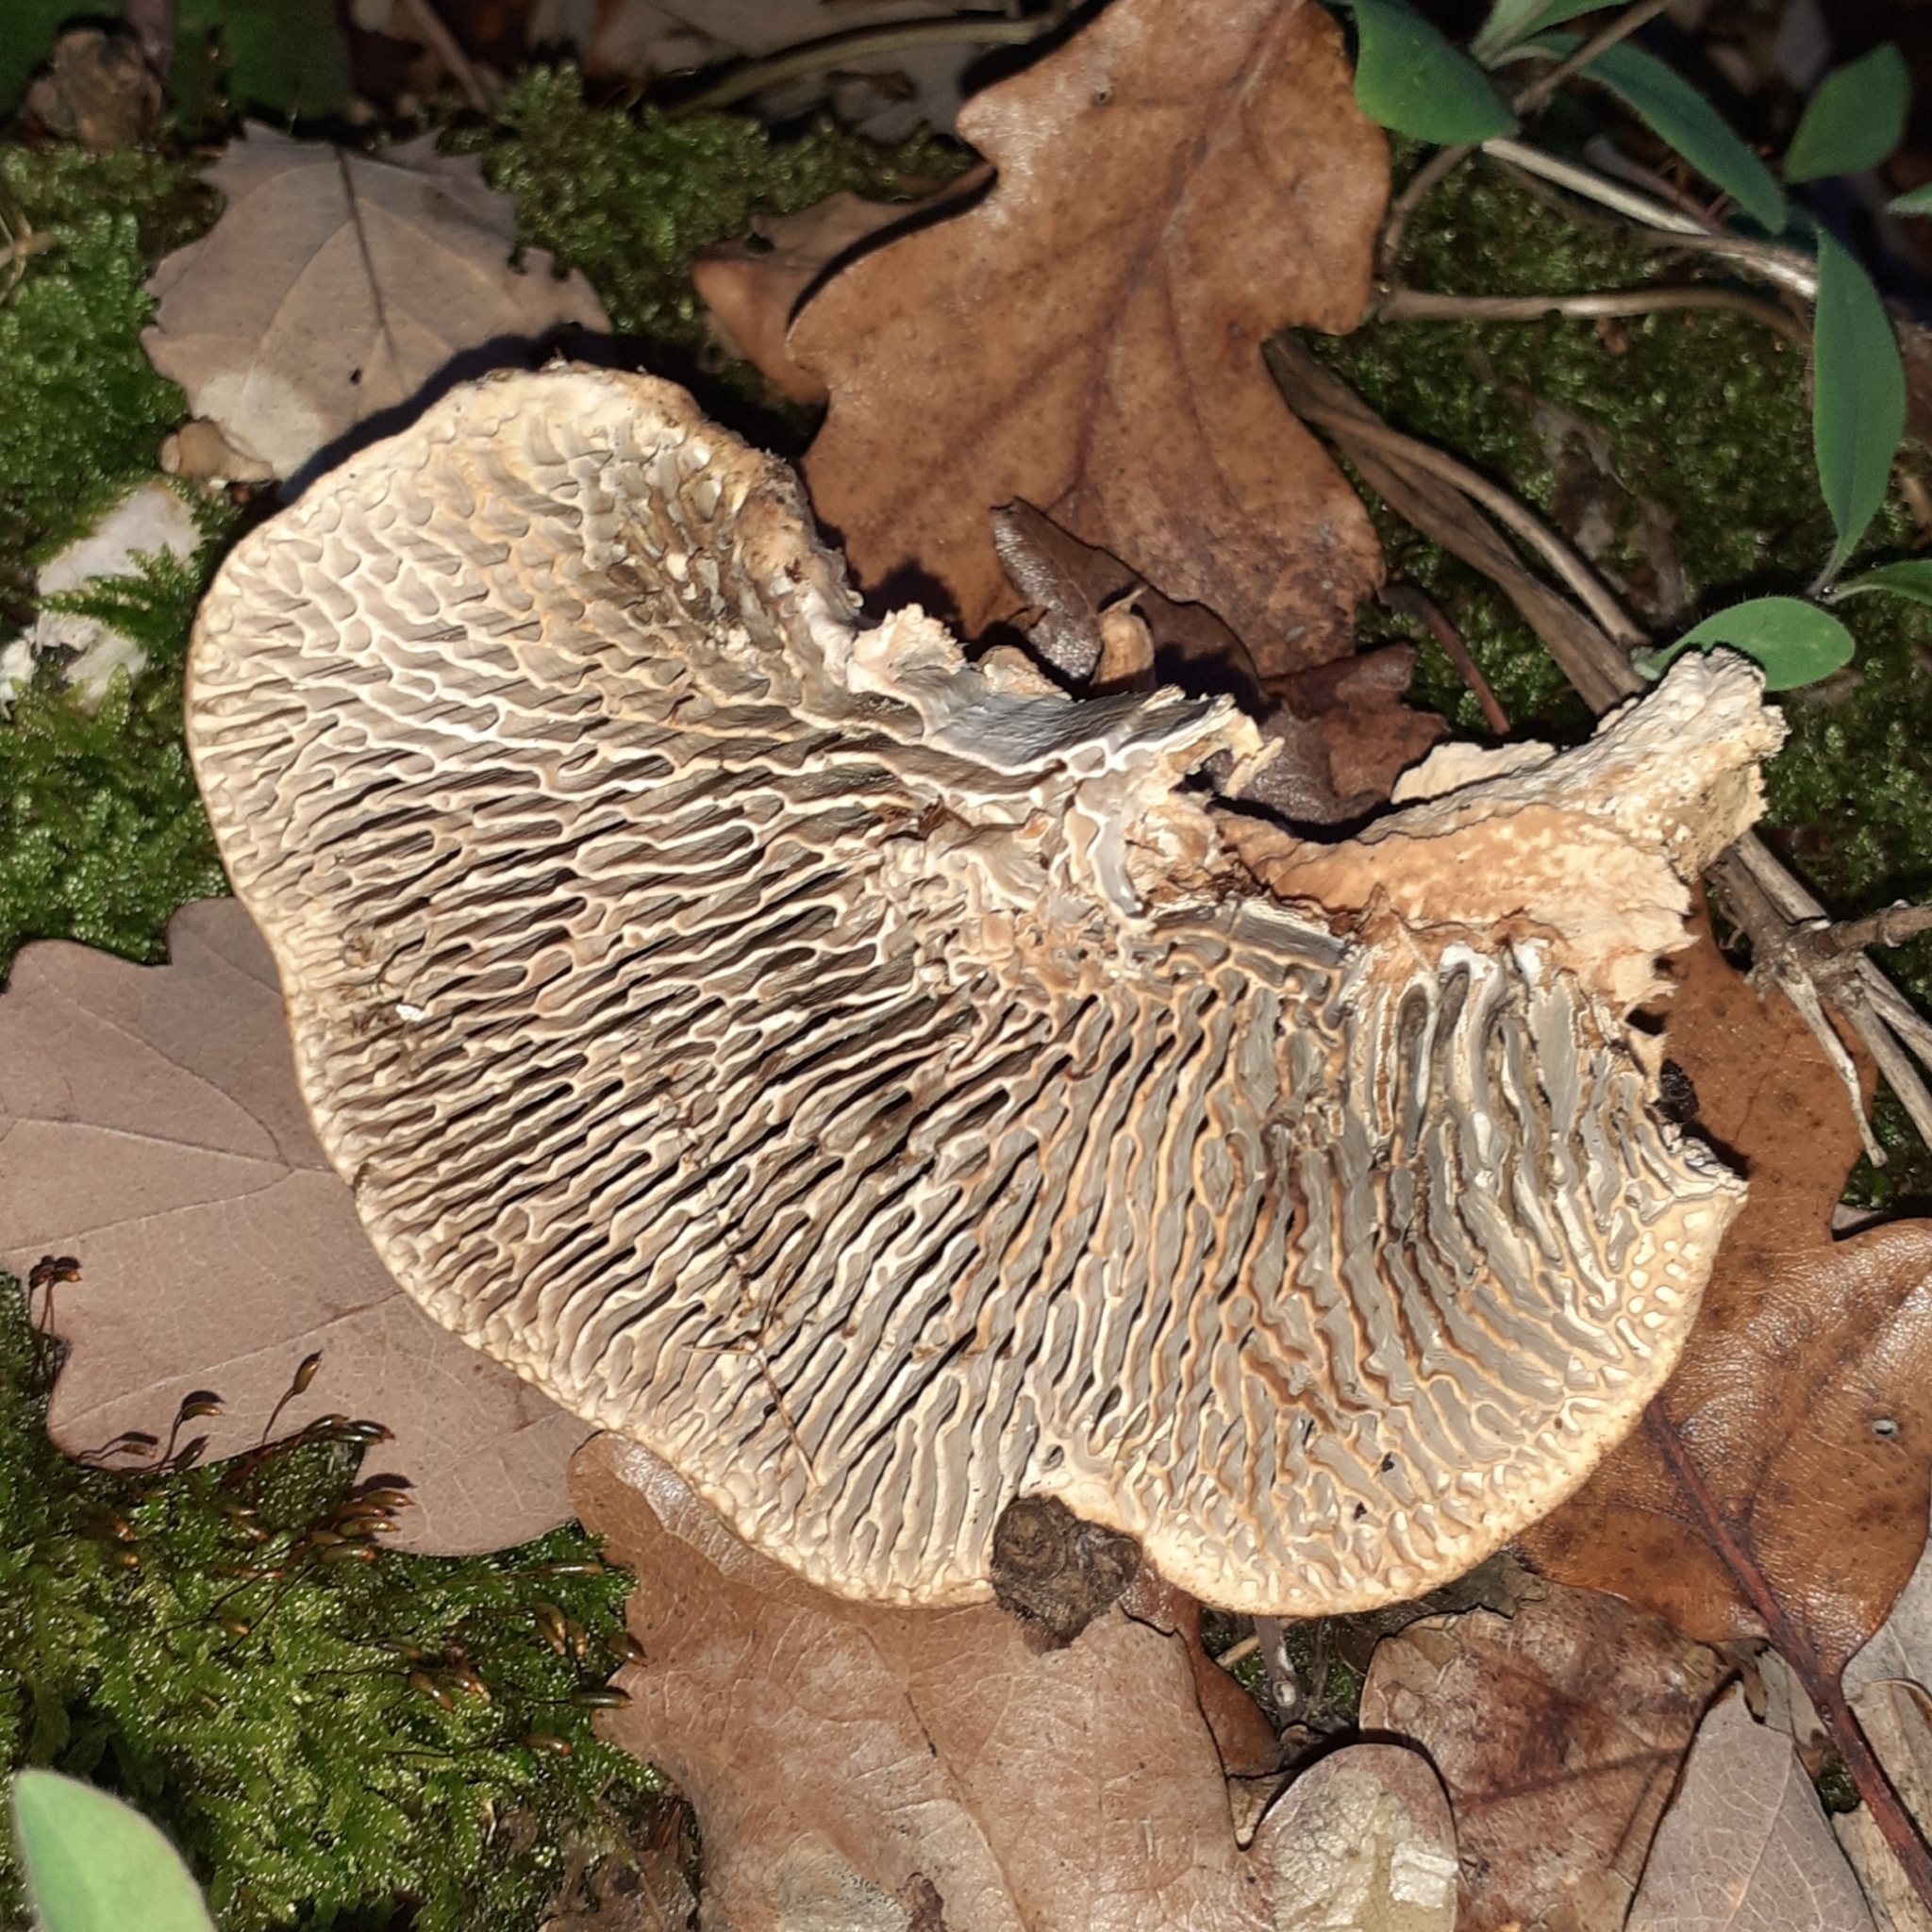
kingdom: Fungi
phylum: Basidiomycota
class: Agaricomycetes
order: Polyporales
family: Fomitopsidaceae
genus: Fomitopsis
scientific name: Fomitopsis
